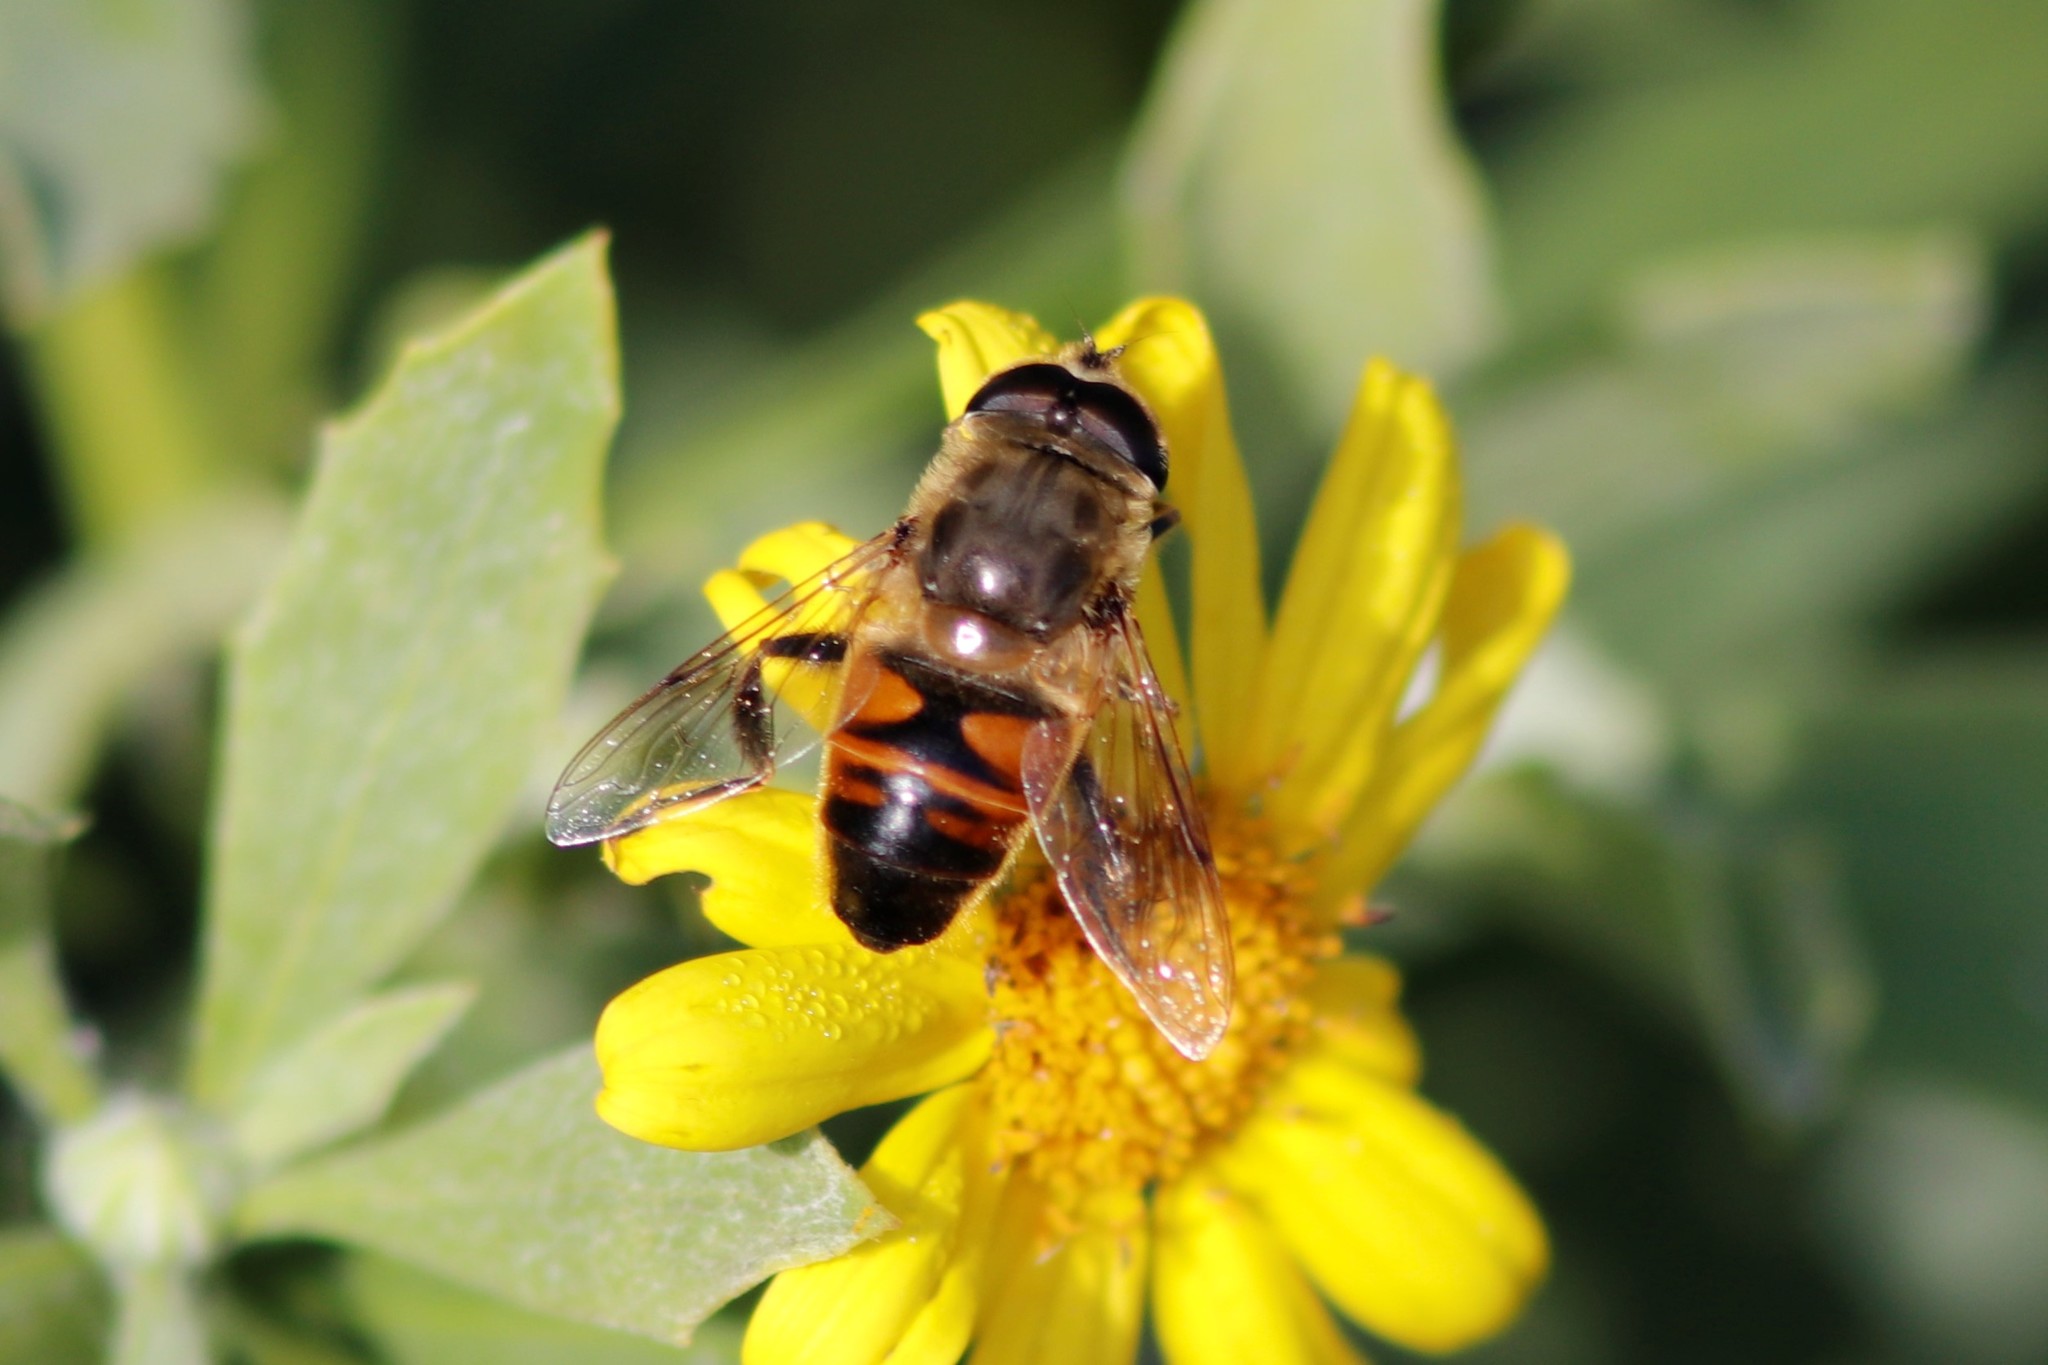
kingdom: Animalia
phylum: Arthropoda
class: Insecta
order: Diptera
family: Syrphidae
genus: Eristalis
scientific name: Eristalis tenax
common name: Drone fly
